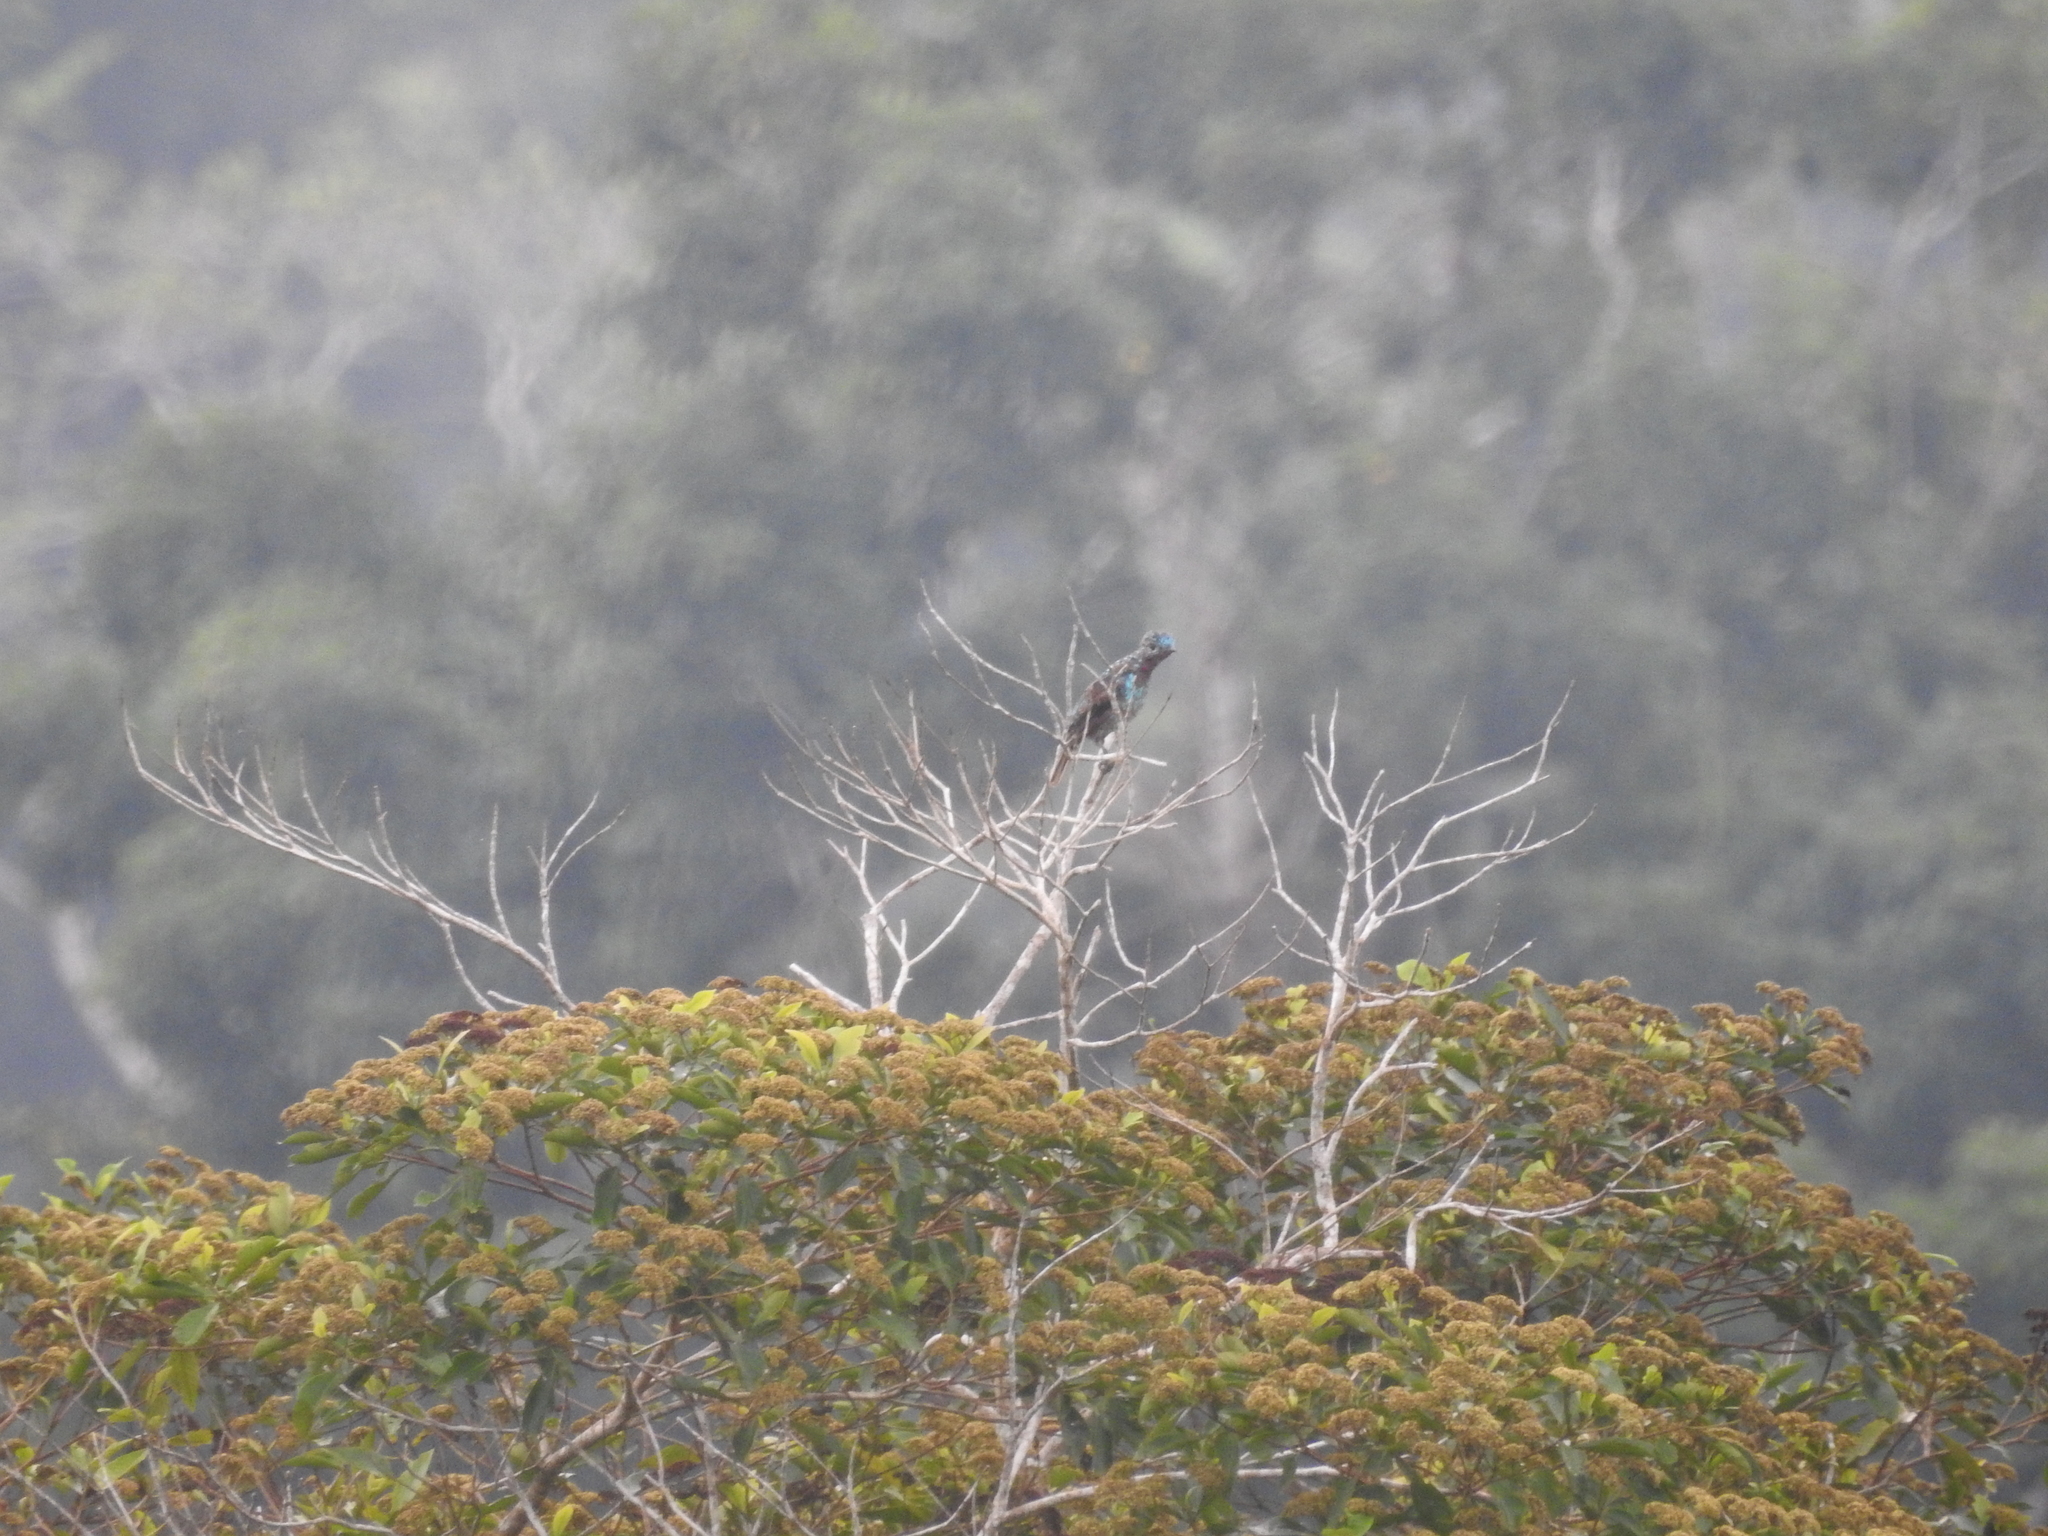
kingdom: Animalia
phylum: Chordata
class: Aves
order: Passeriformes
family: Cotingidae
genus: Cotinga
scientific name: Cotinga cayana
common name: Spangled cotinga
